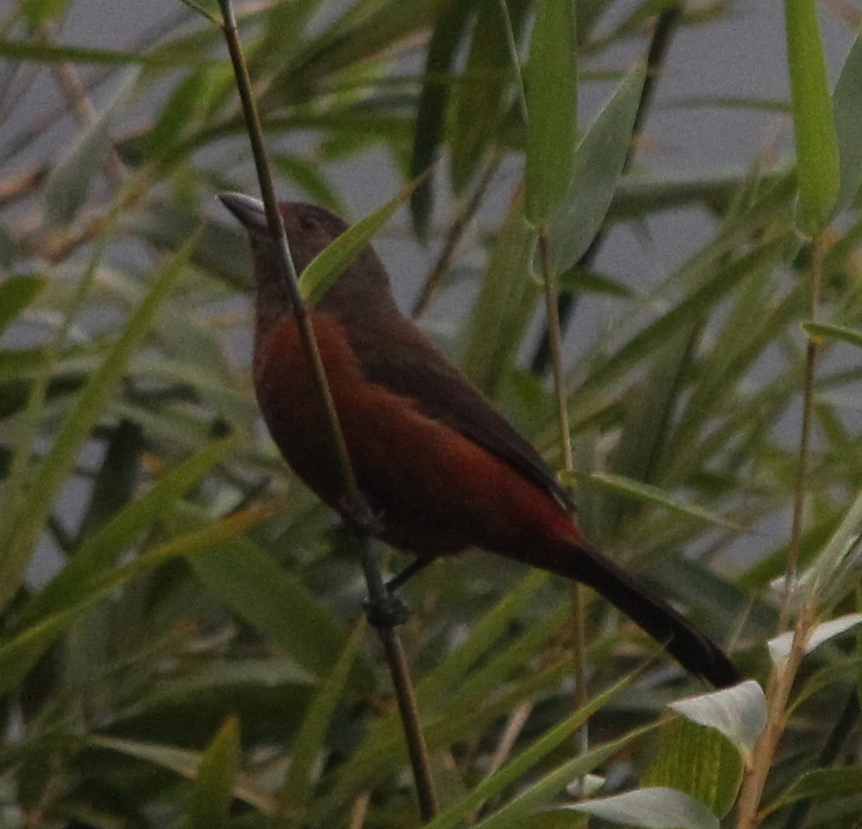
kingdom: Animalia
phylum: Chordata
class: Aves
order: Passeriformes
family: Thraupidae
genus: Ramphocelus
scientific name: Ramphocelus bresilia
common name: Brazilian tanager
